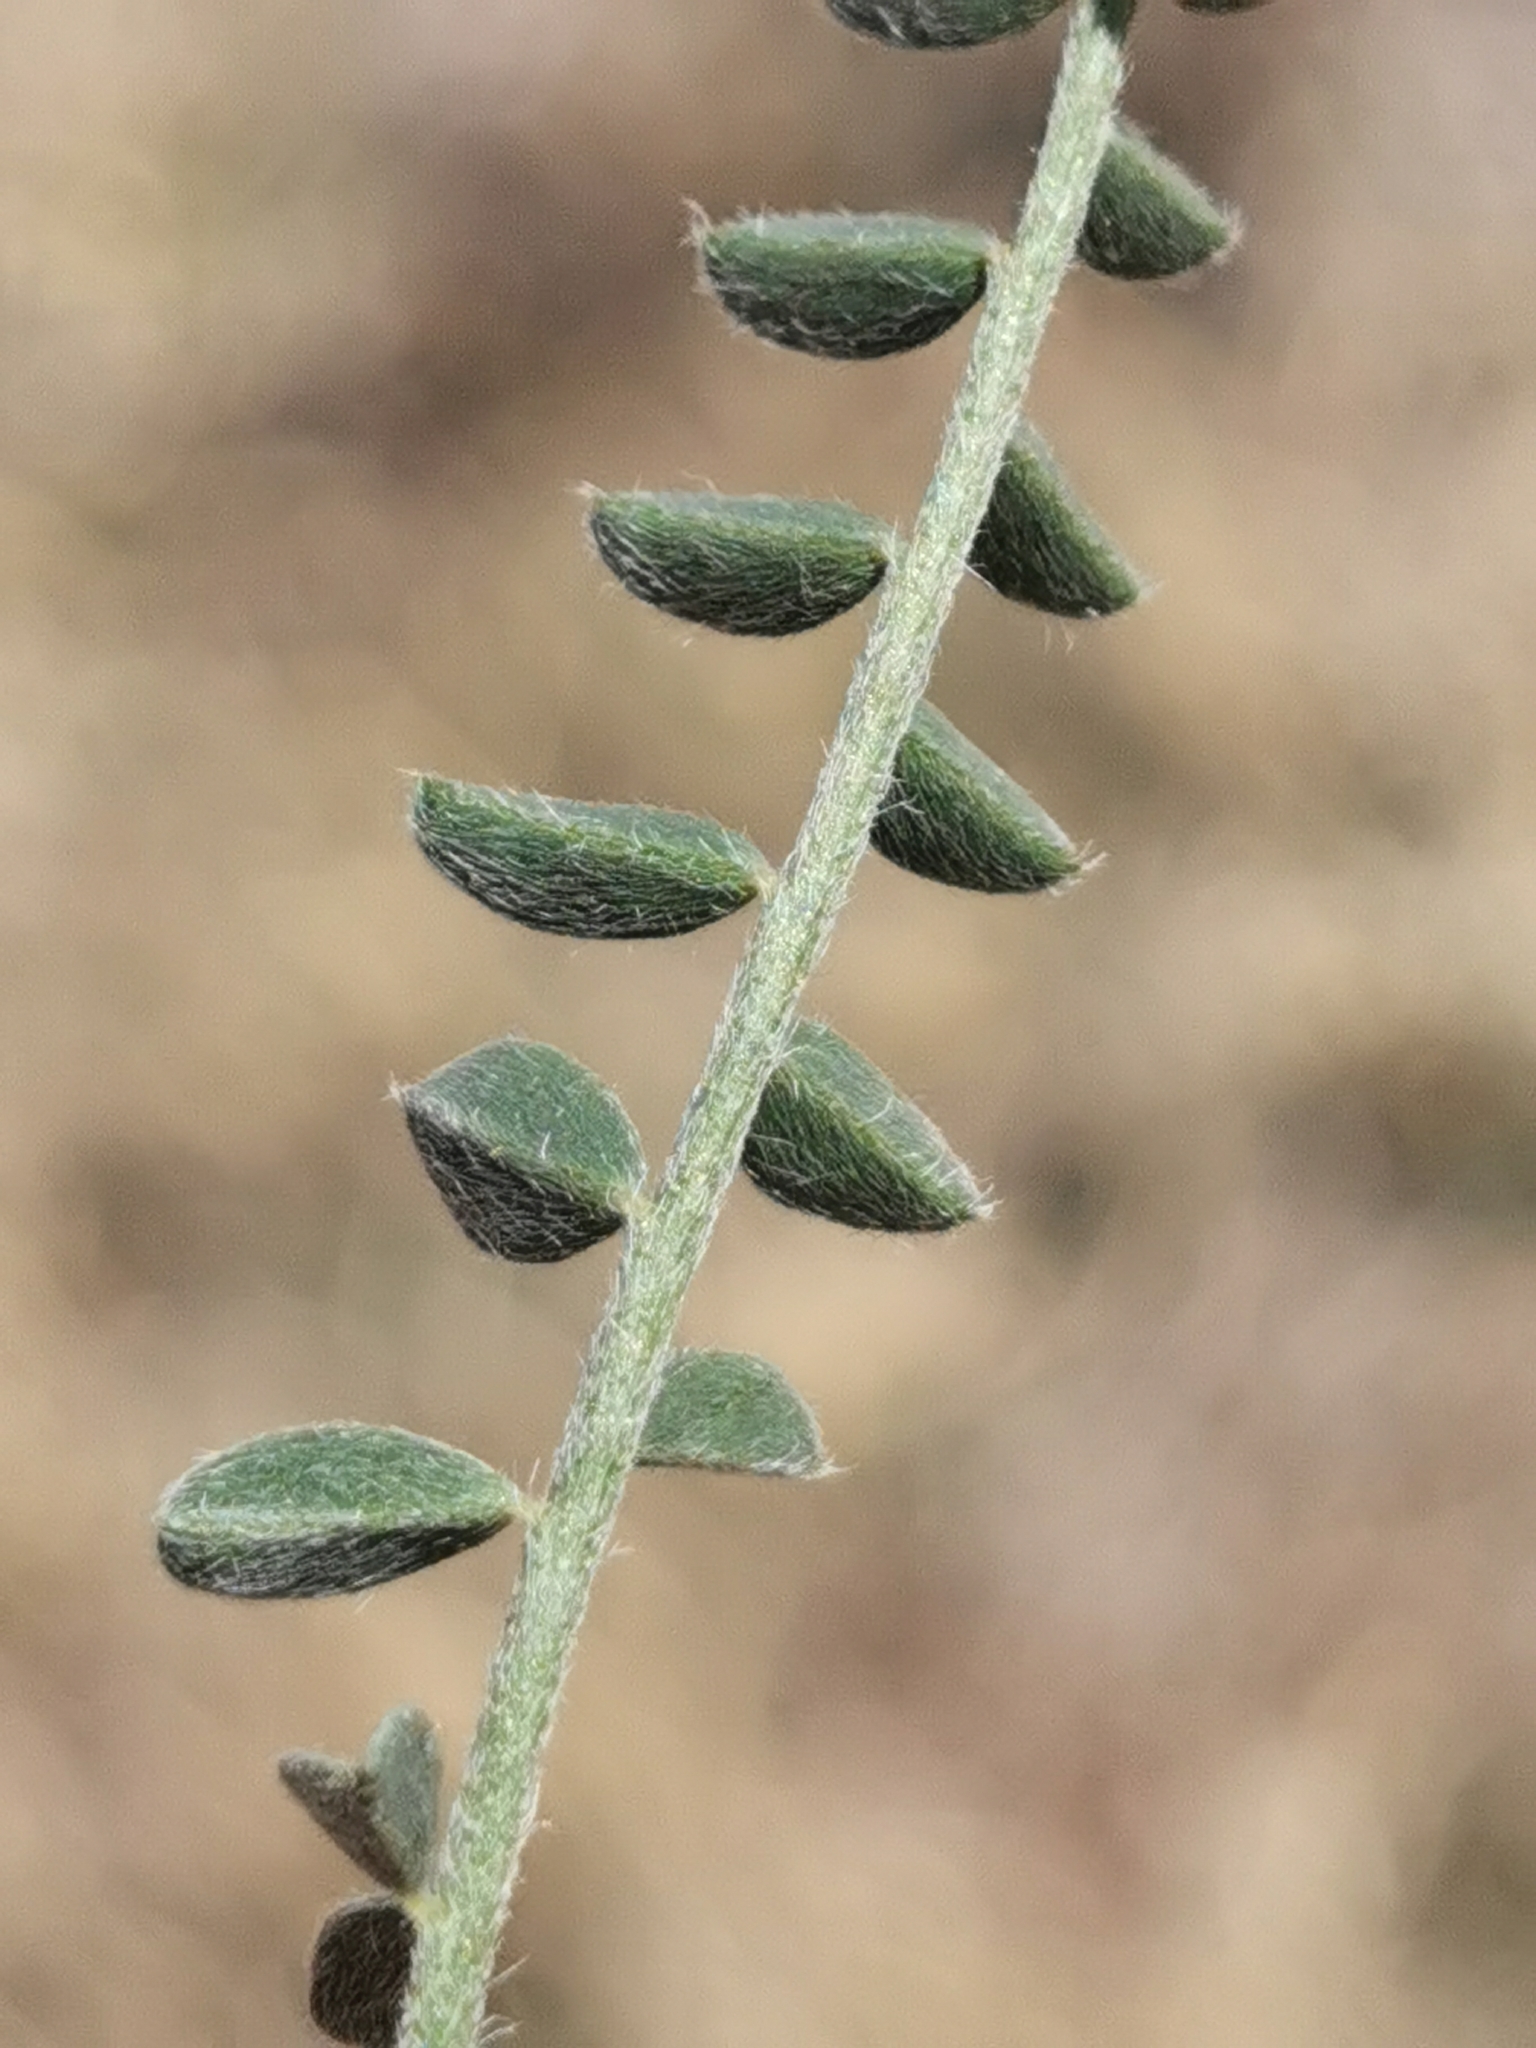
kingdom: Plantae
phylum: Tracheophyta
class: Magnoliopsida
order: Fabales
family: Fabaceae
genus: Astragalus
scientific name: Astragalus mollissimus
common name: Woolly locoweed
